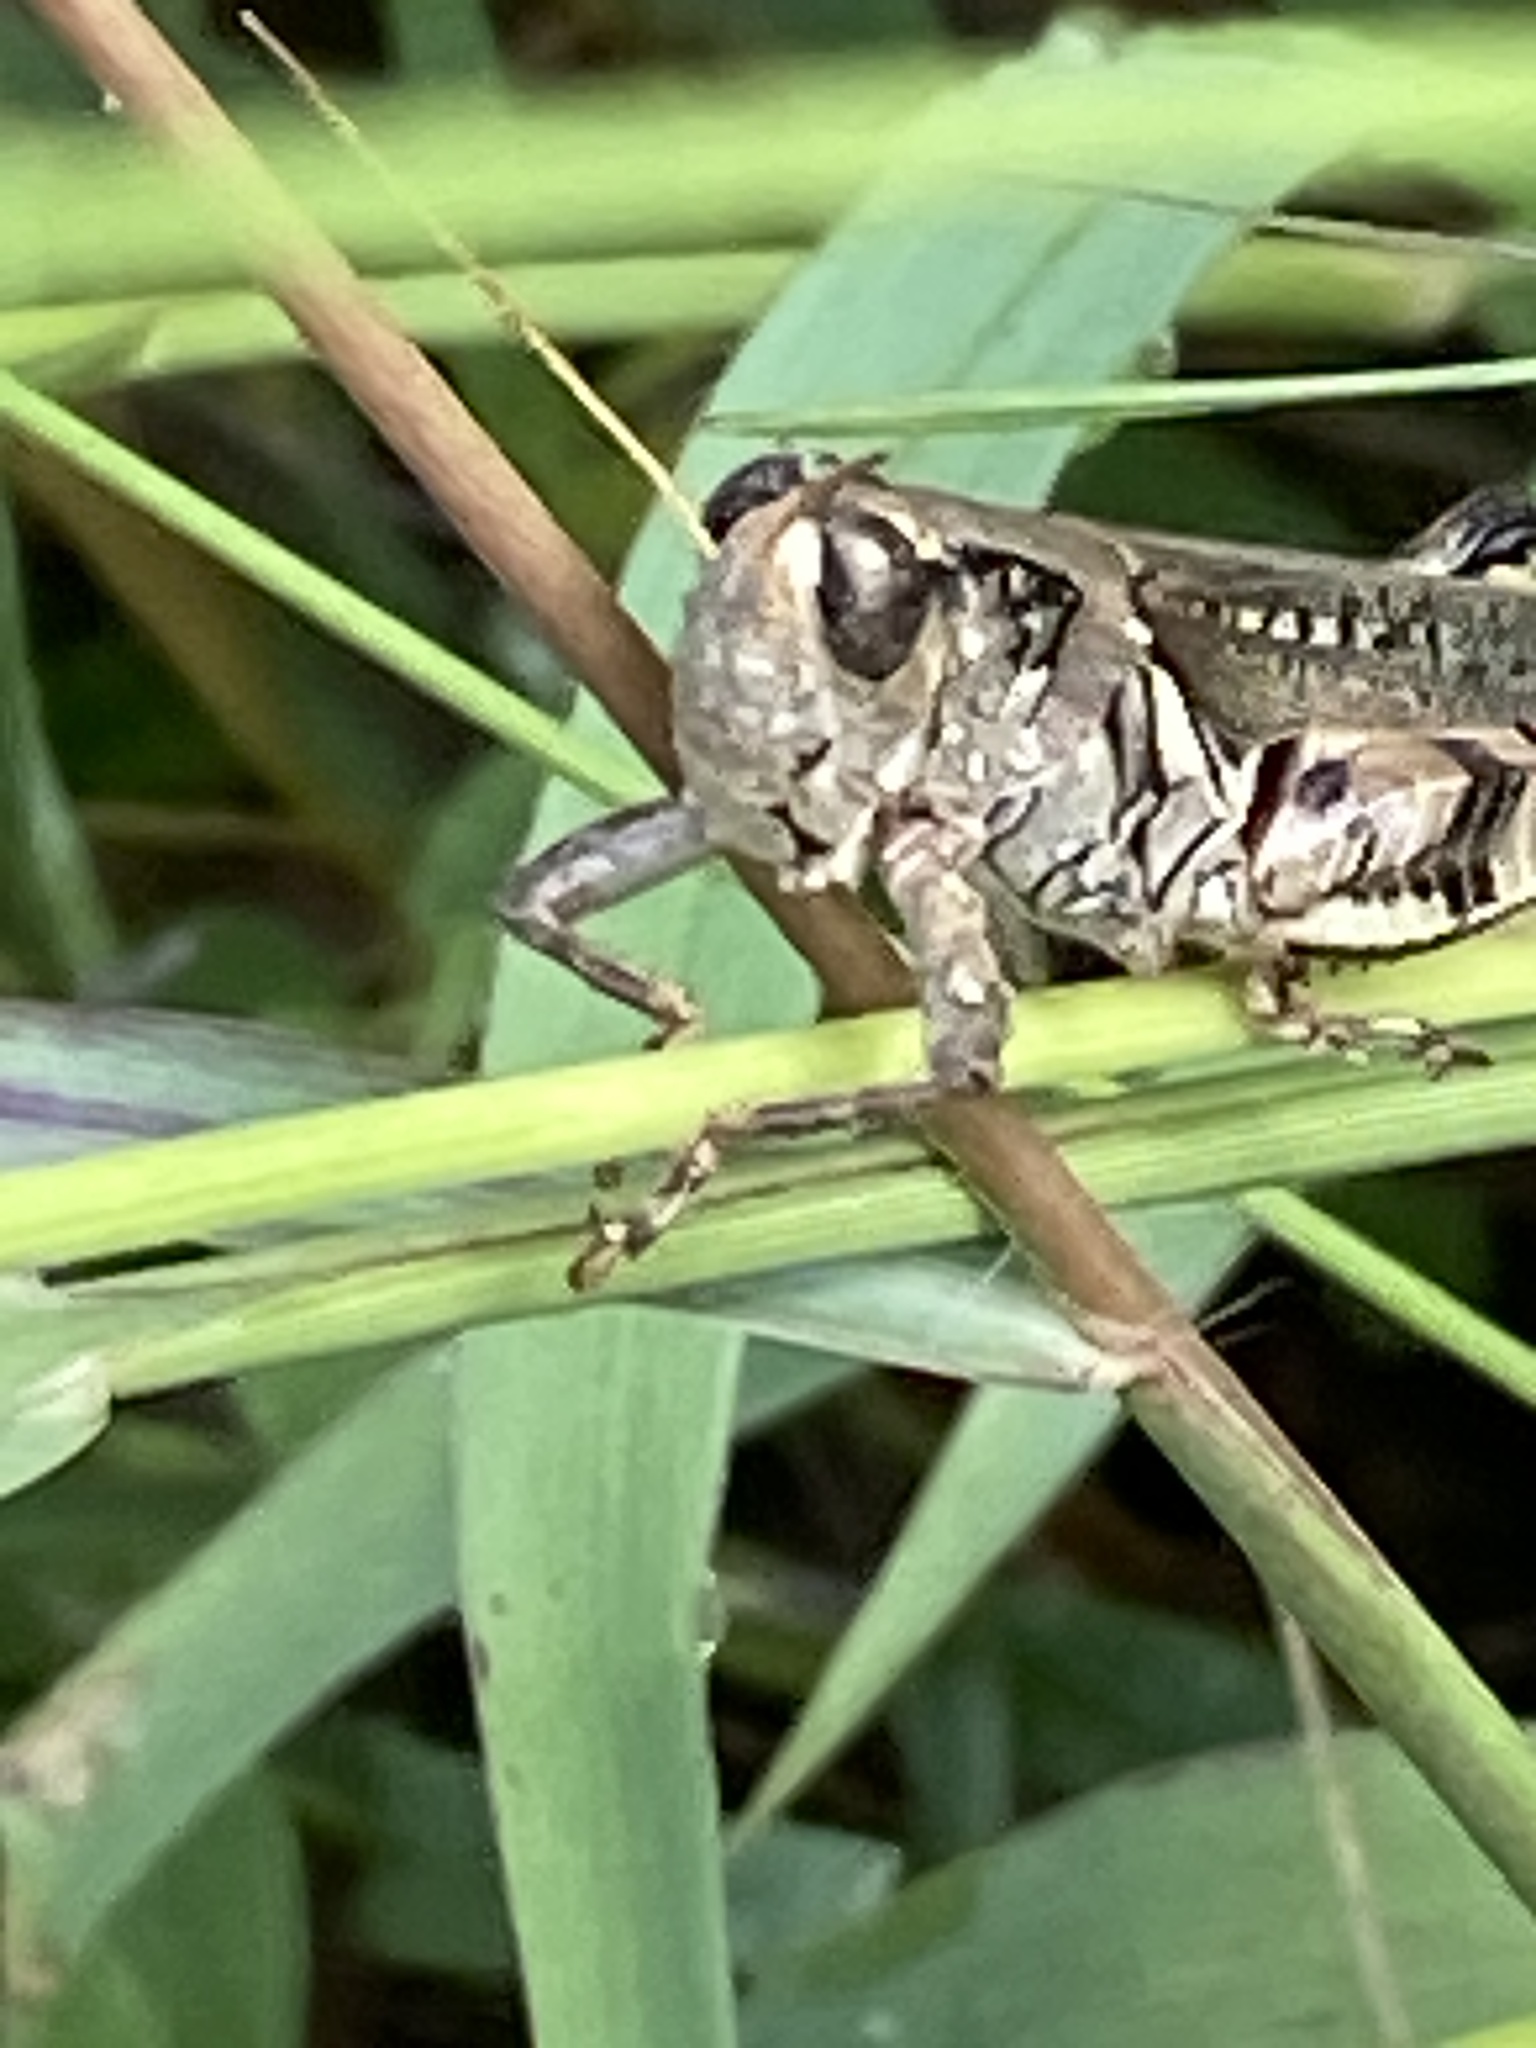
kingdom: Animalia
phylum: Arthropoda
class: Insecta
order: Orthoptera
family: Acrididae
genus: Melanoplus
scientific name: Melanoplus ponderosus
